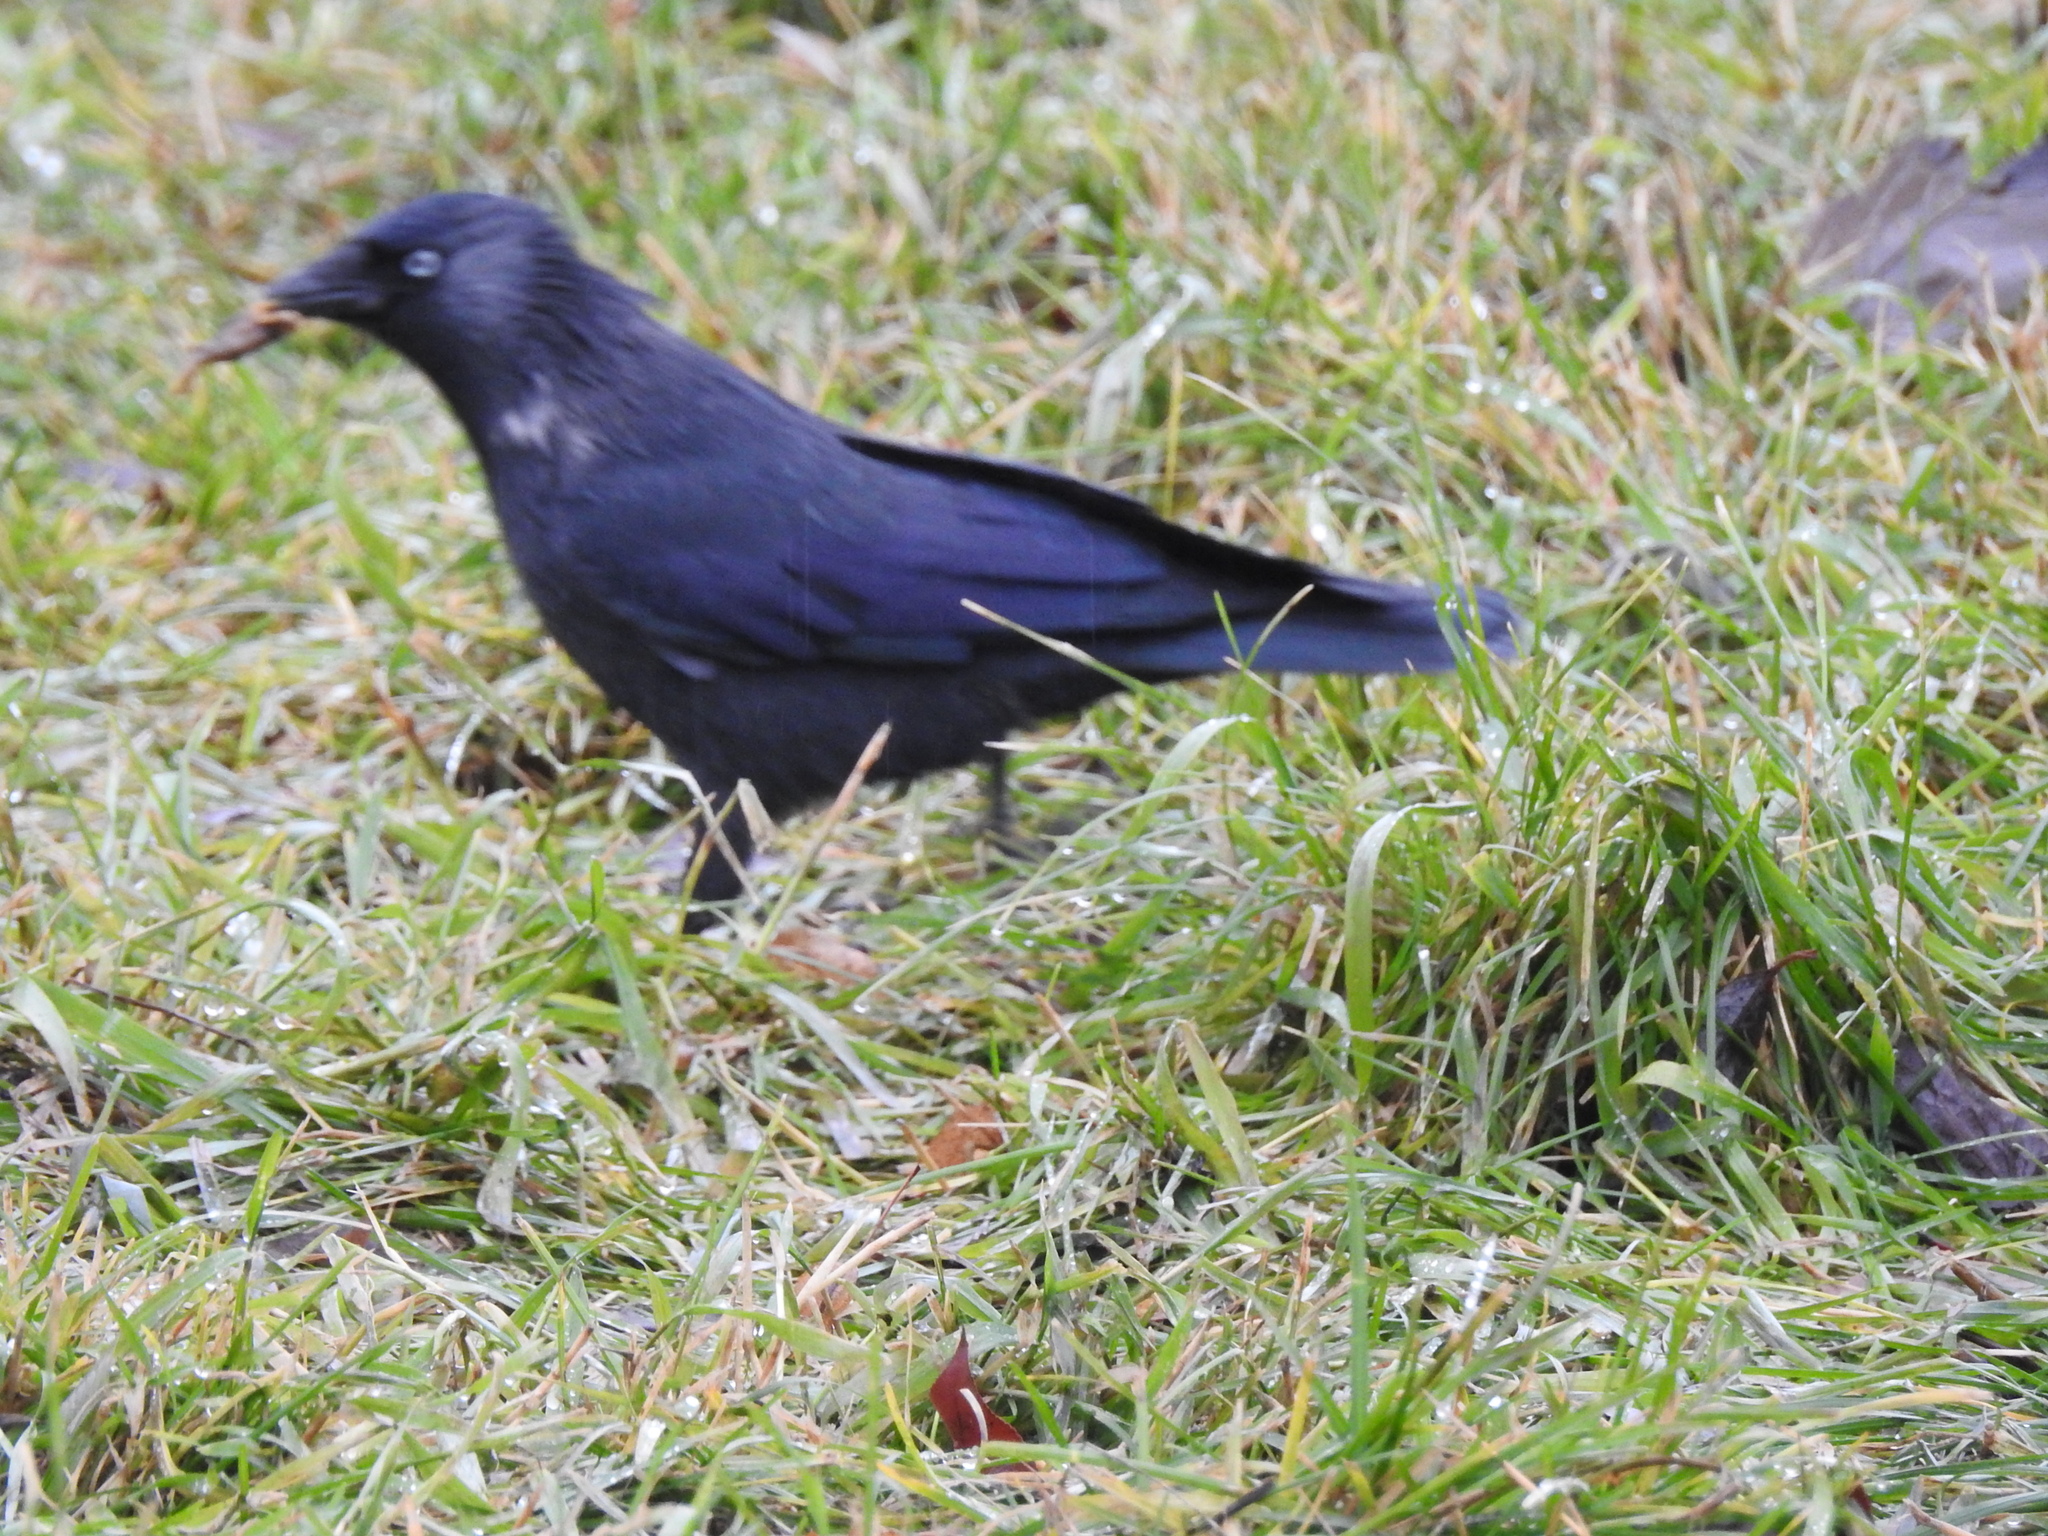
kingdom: Animalia
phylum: Chordata
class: Aves
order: Passeriformes
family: Corvidae
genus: Coloeus
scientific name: Coloeus monedula
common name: Western jackdaw
